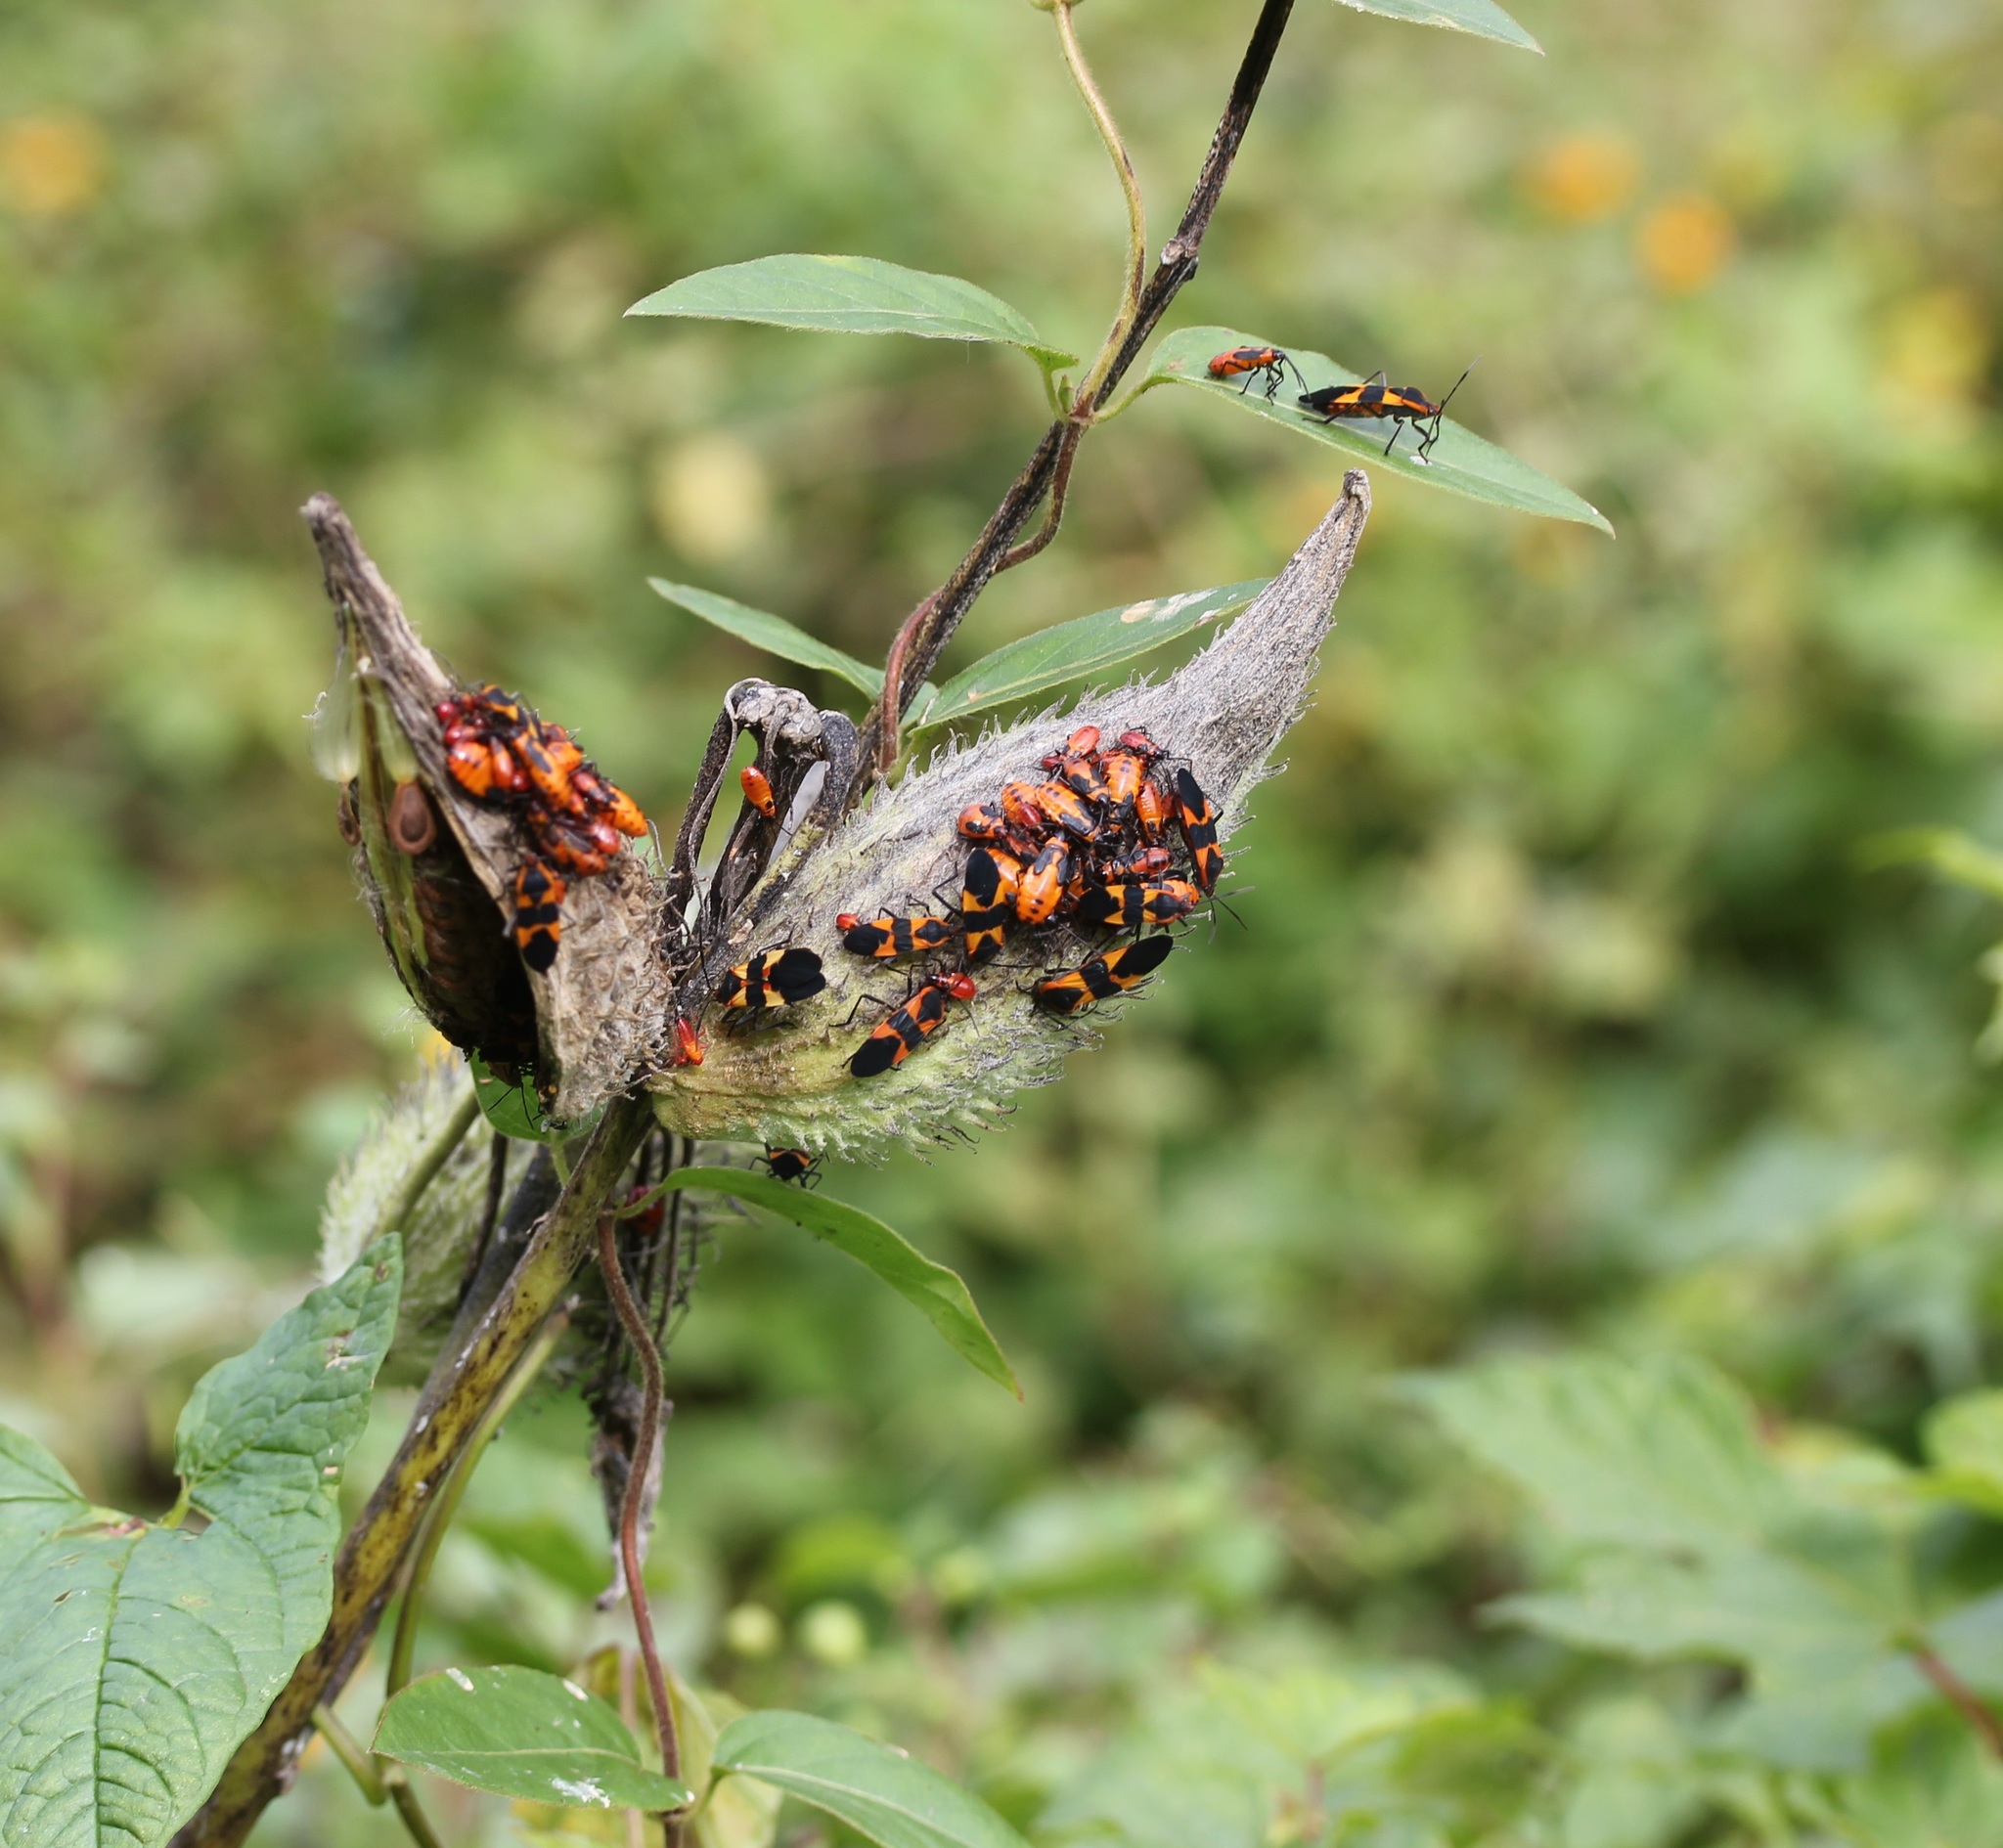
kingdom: Animalia
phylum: Arthropoda
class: Insecta
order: Hemiptera
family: Lygaeidae
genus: Oncopeltus
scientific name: Oncopeltus fasciatus
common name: Large milkweed bug
